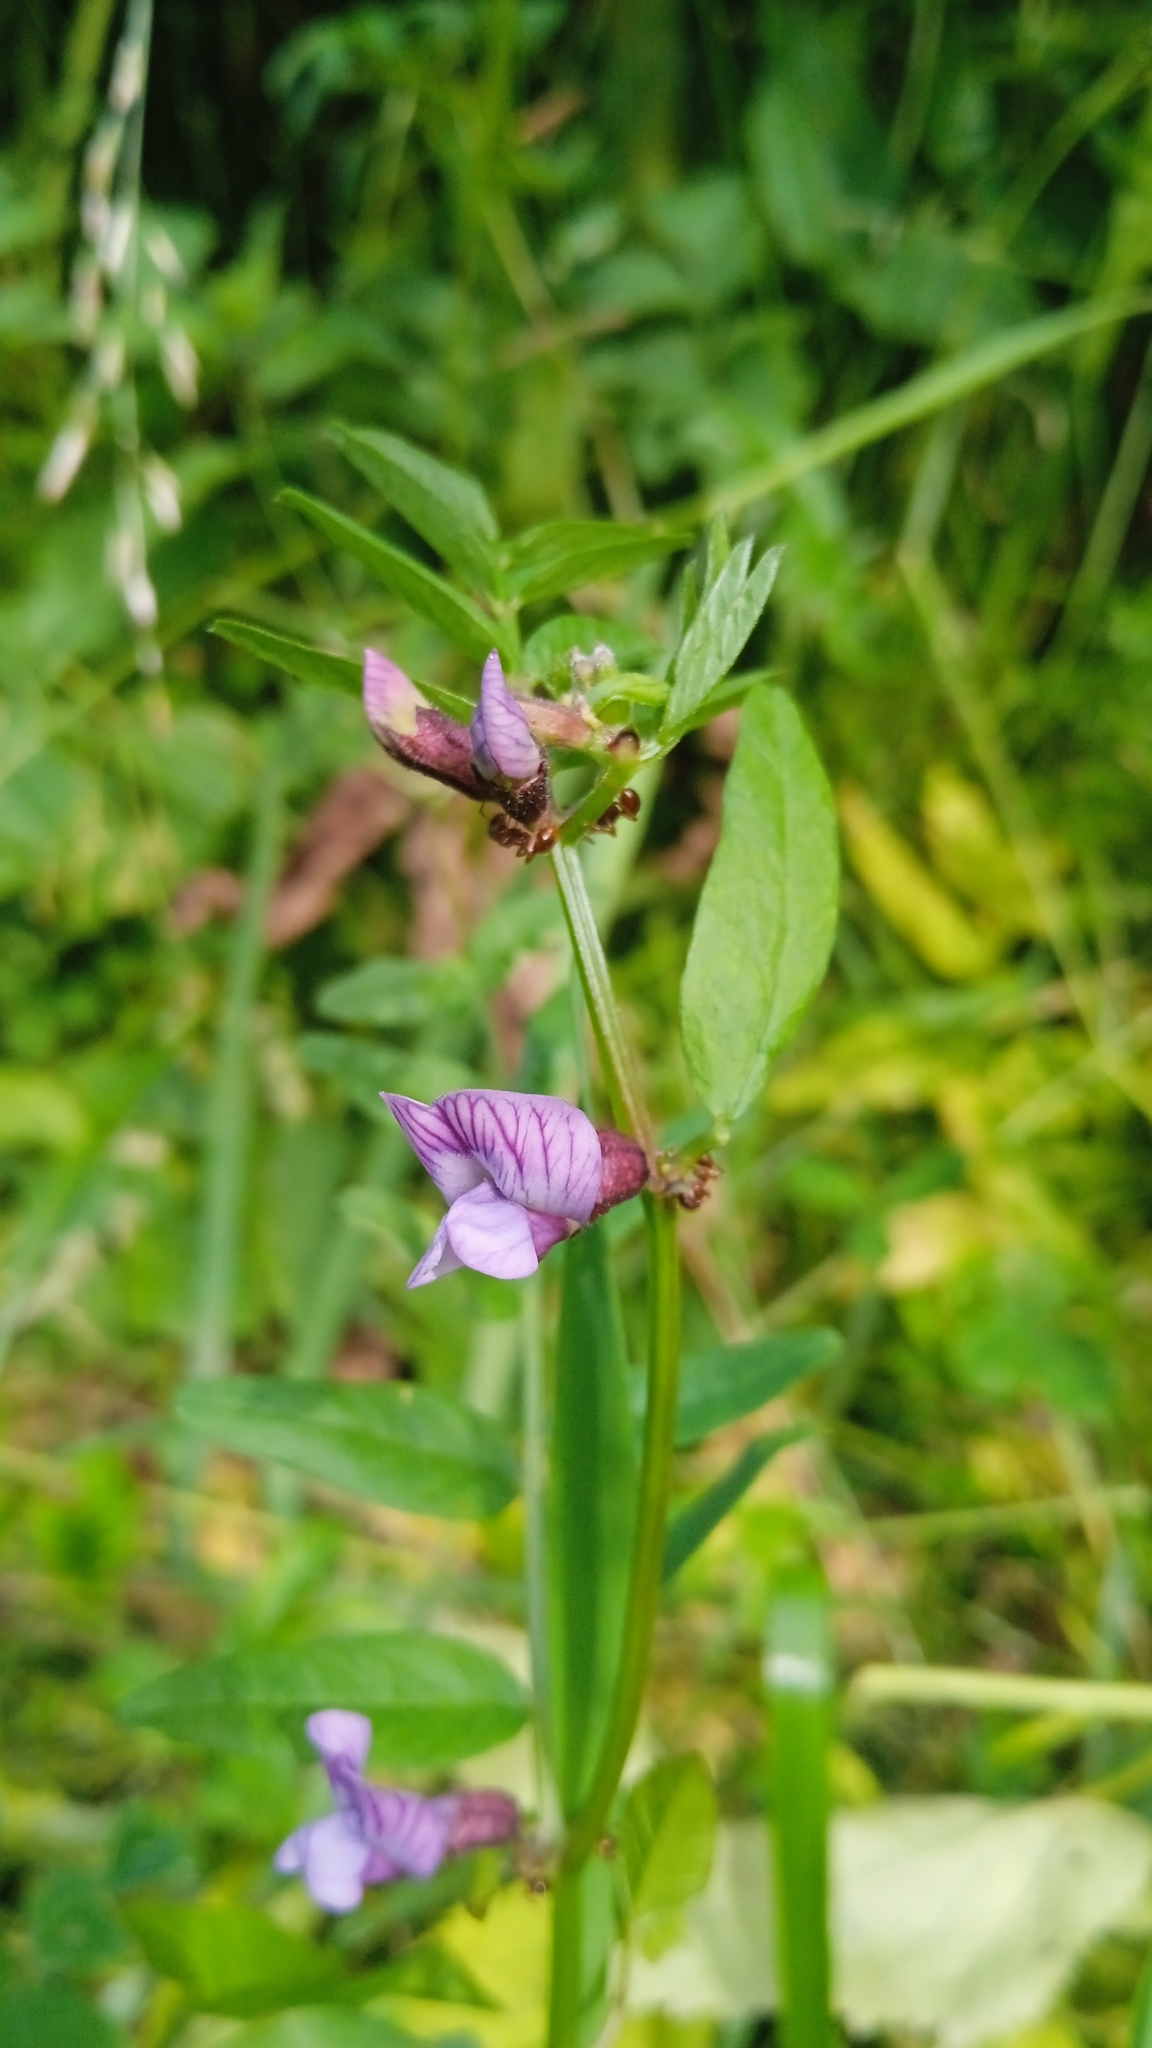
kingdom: Plantae
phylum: Tracheophyta
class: Magnoliopsida
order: Fabales
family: Fabaceae
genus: Vicia
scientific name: Vicia sepium
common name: Bush vetch
